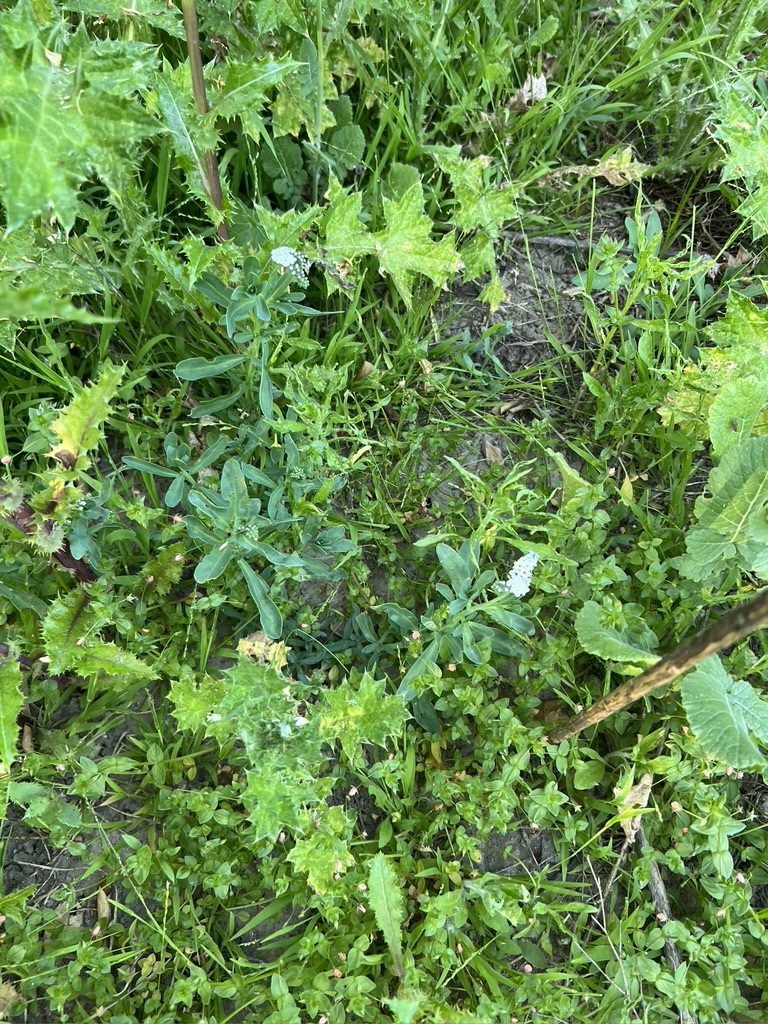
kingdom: Plantae
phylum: Tracheophyta
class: Magnoliopsida
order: Boraginales
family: Heliotropiaceae
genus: Heliotropium
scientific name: Heliotropium curassavicum
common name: Seaside heliotrope
